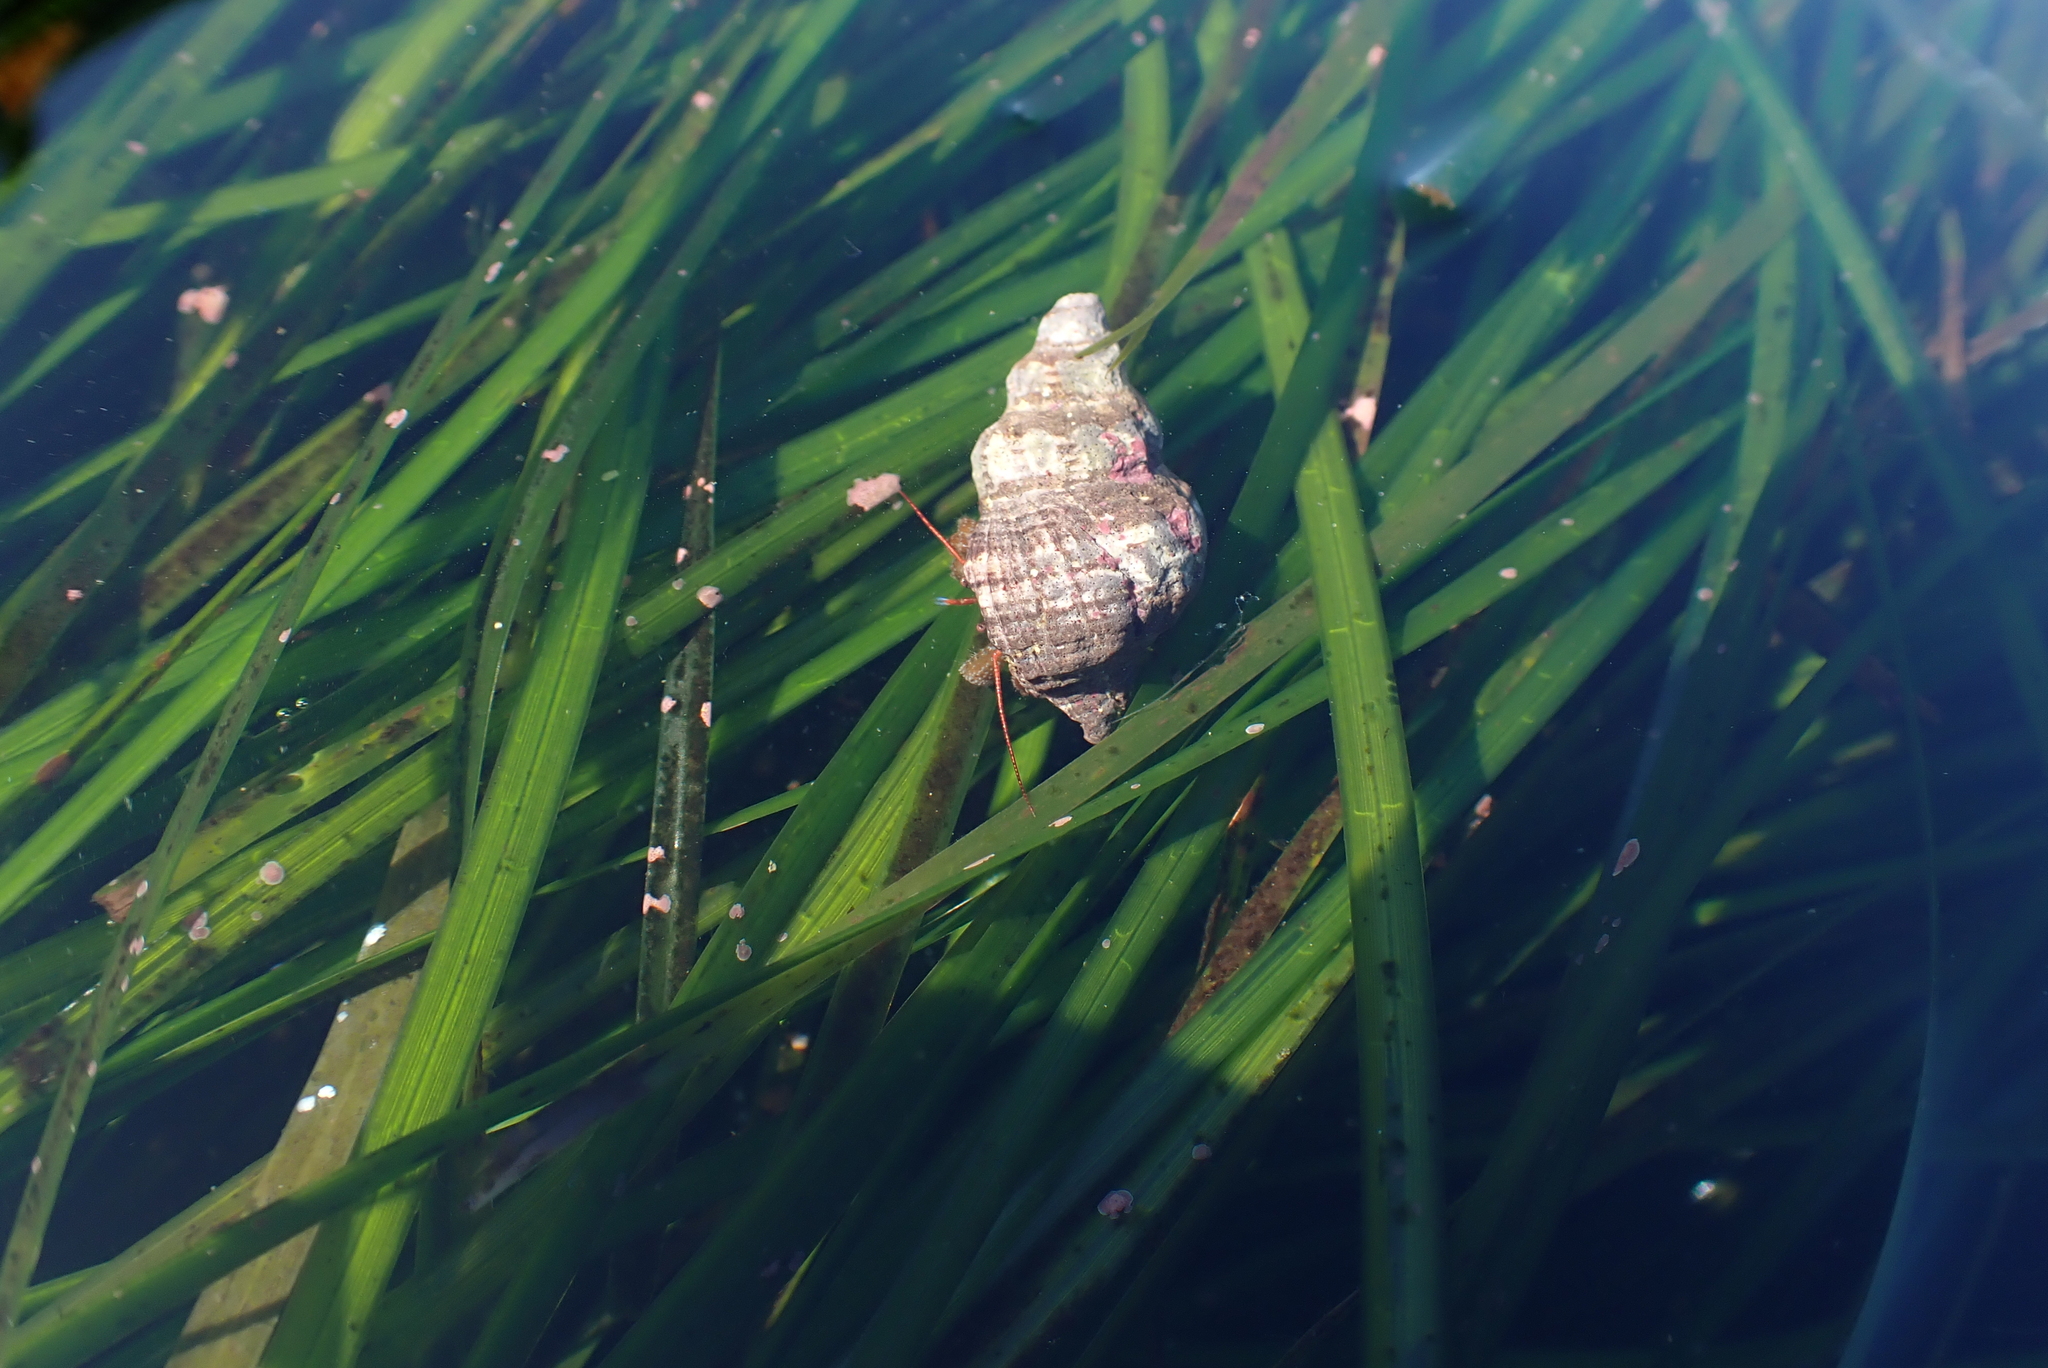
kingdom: Animalia
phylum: Arthropoda
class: Malacostraca
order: Decapoda
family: Paguridae
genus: Pagurus
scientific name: Pagurus granosimanus
